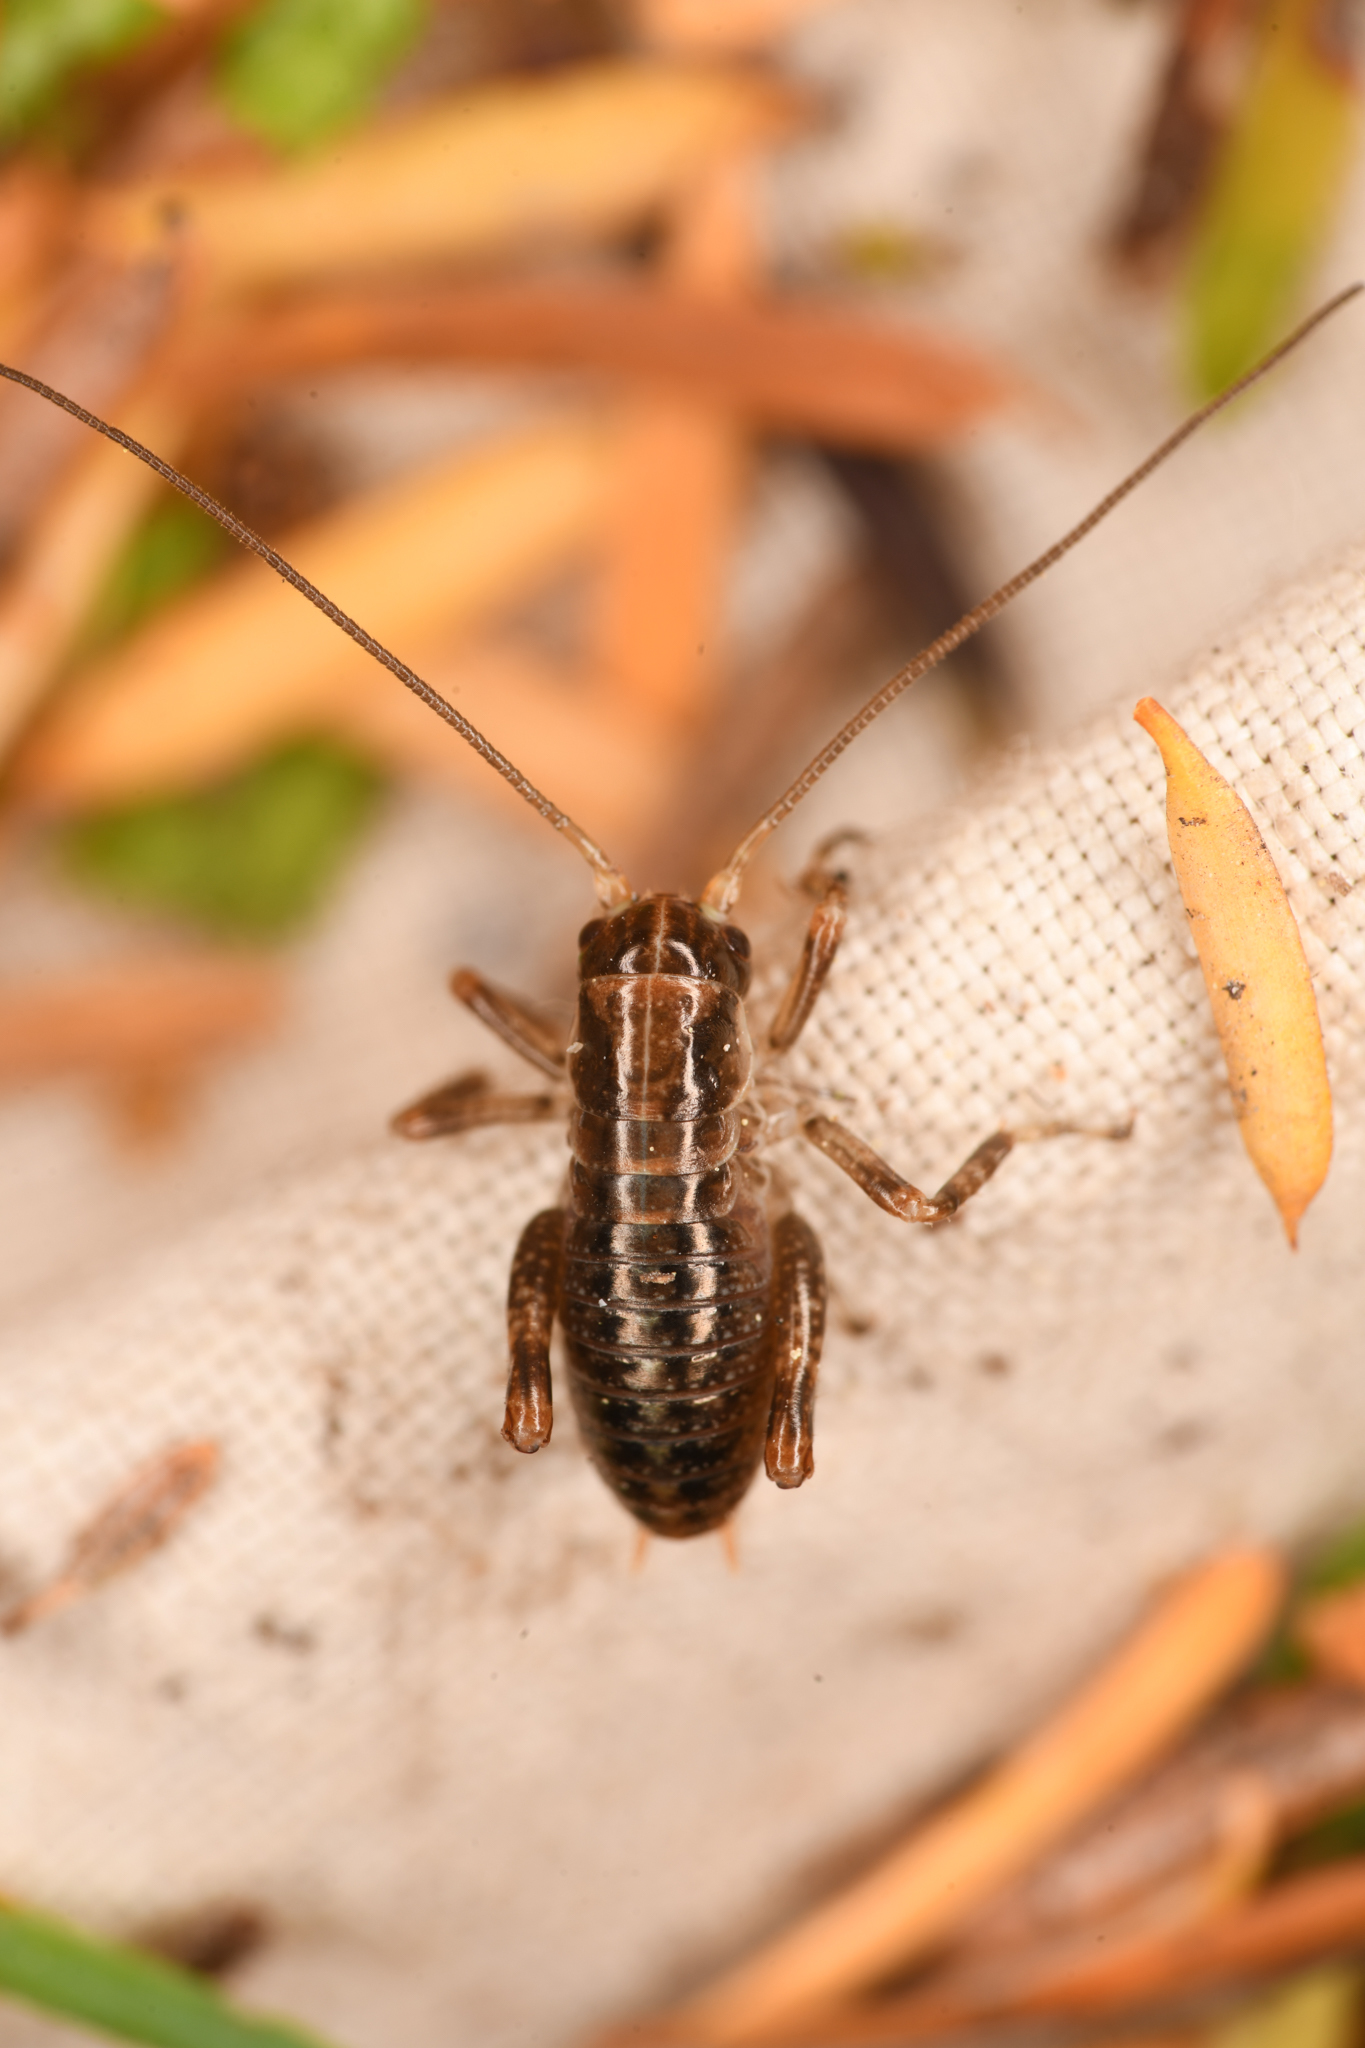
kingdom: Animalia
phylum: Arthropoda
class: Insecta
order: Orthoptera
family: Prophalangopsidae
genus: Cyphoderris
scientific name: Cyphoderris monstrosa
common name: Great grig
